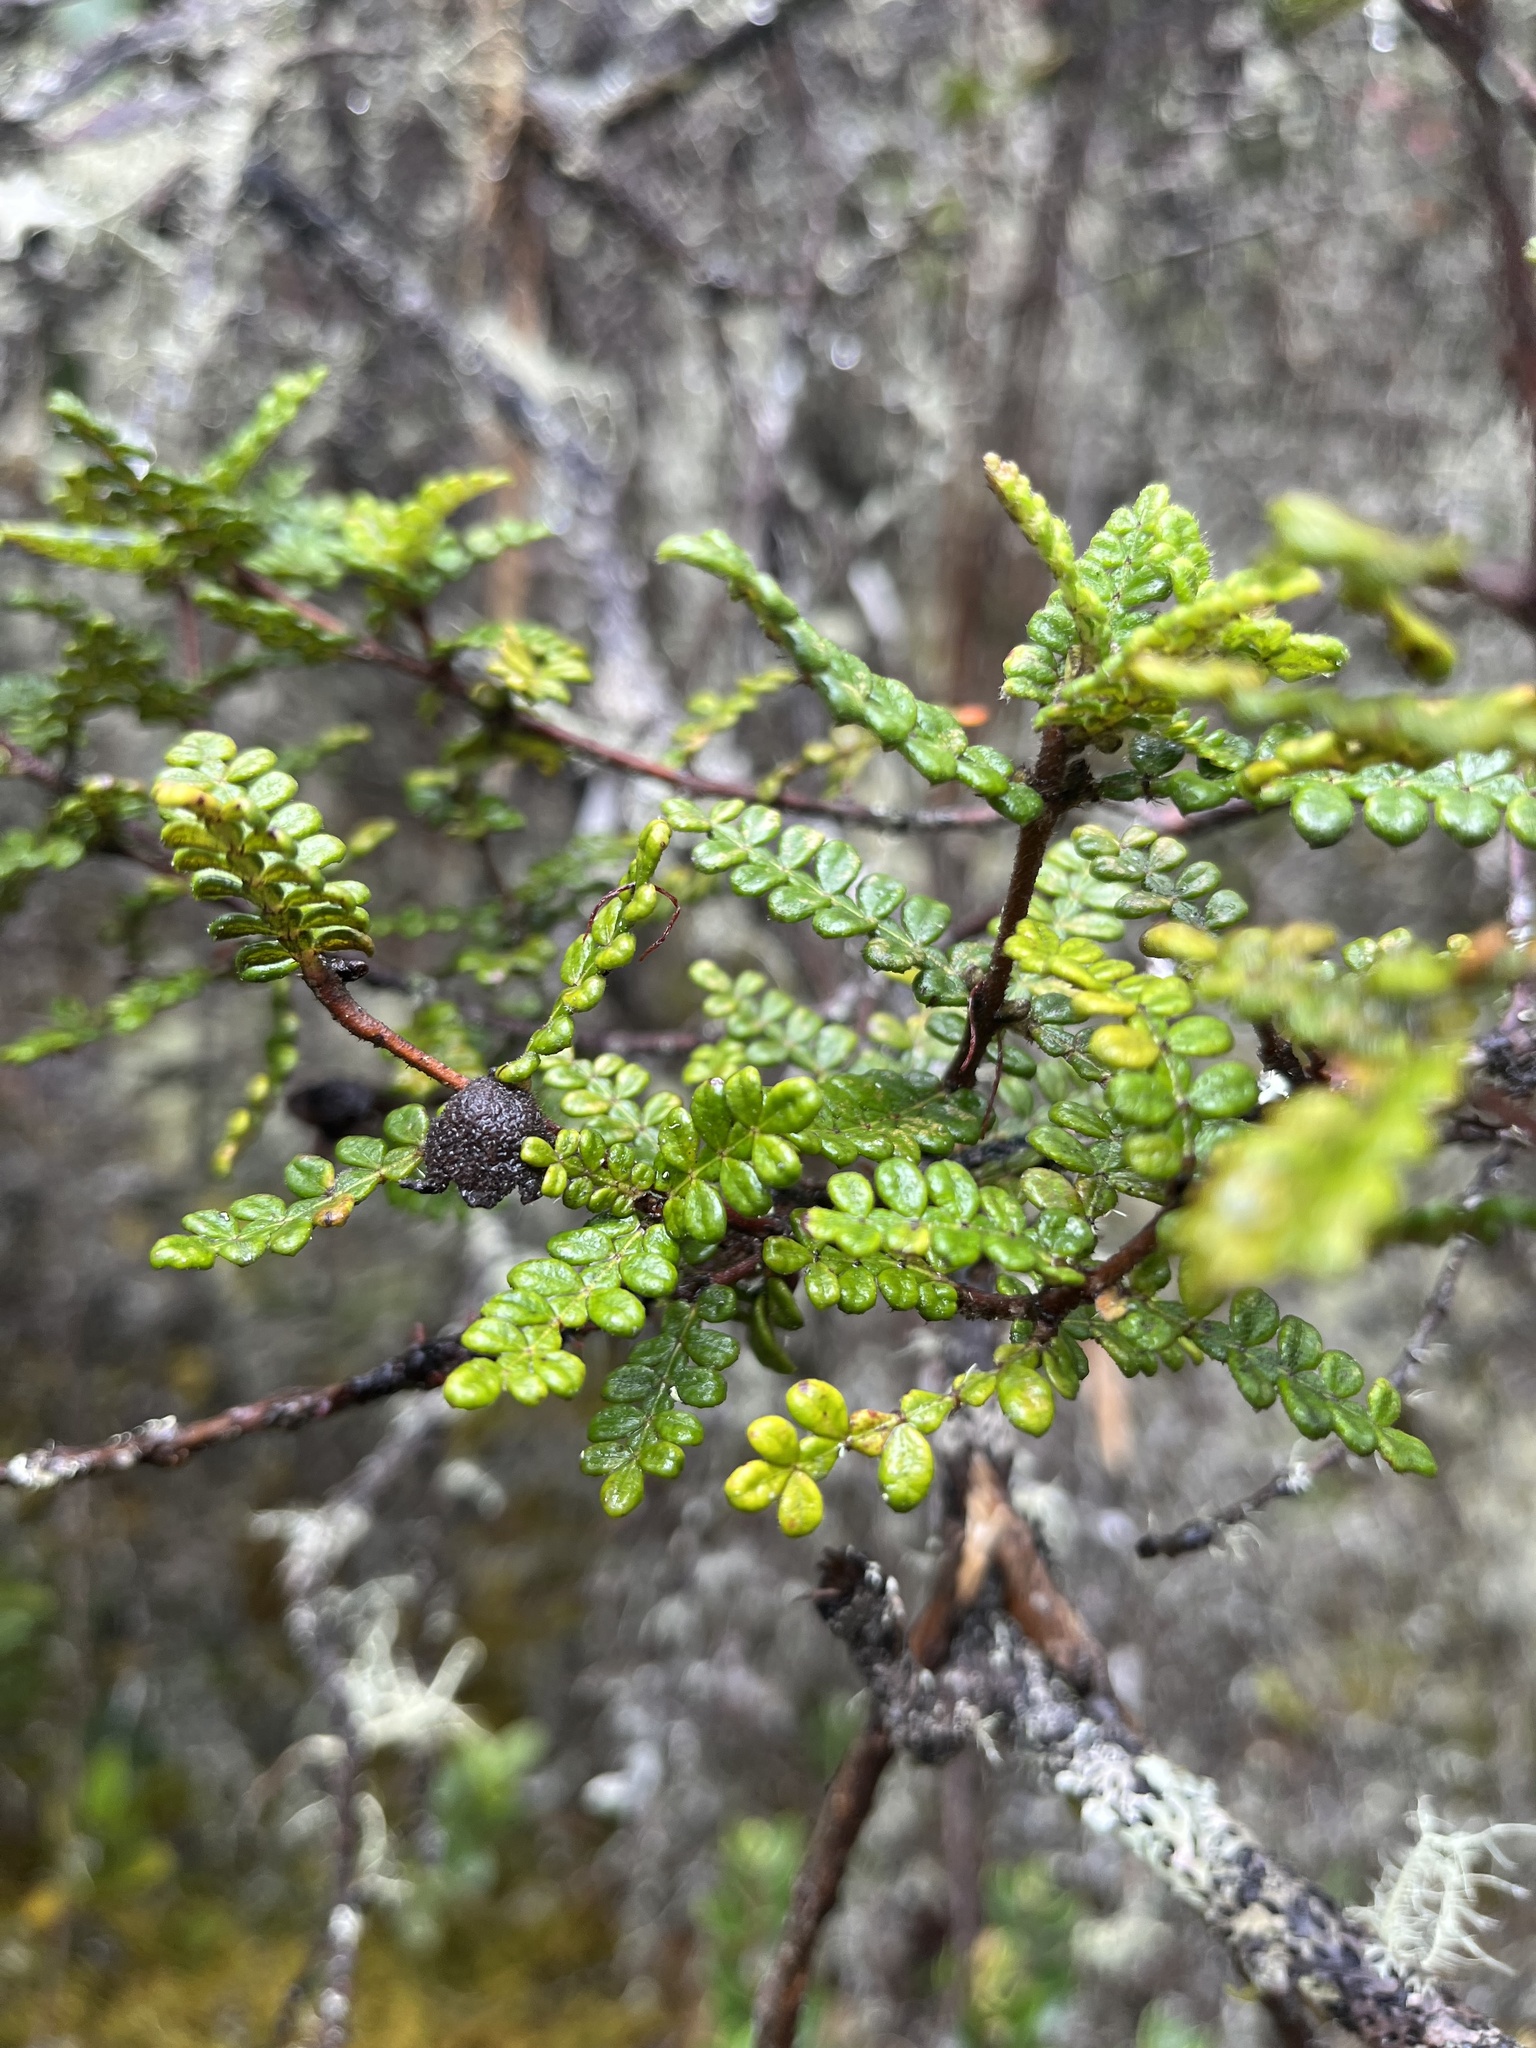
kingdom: Plantae
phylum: Tracheophyta
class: Magnoliopsida
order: Oxalidales
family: Cunoniaceae
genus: Weinmannia
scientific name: Weinmannia tomentosa
